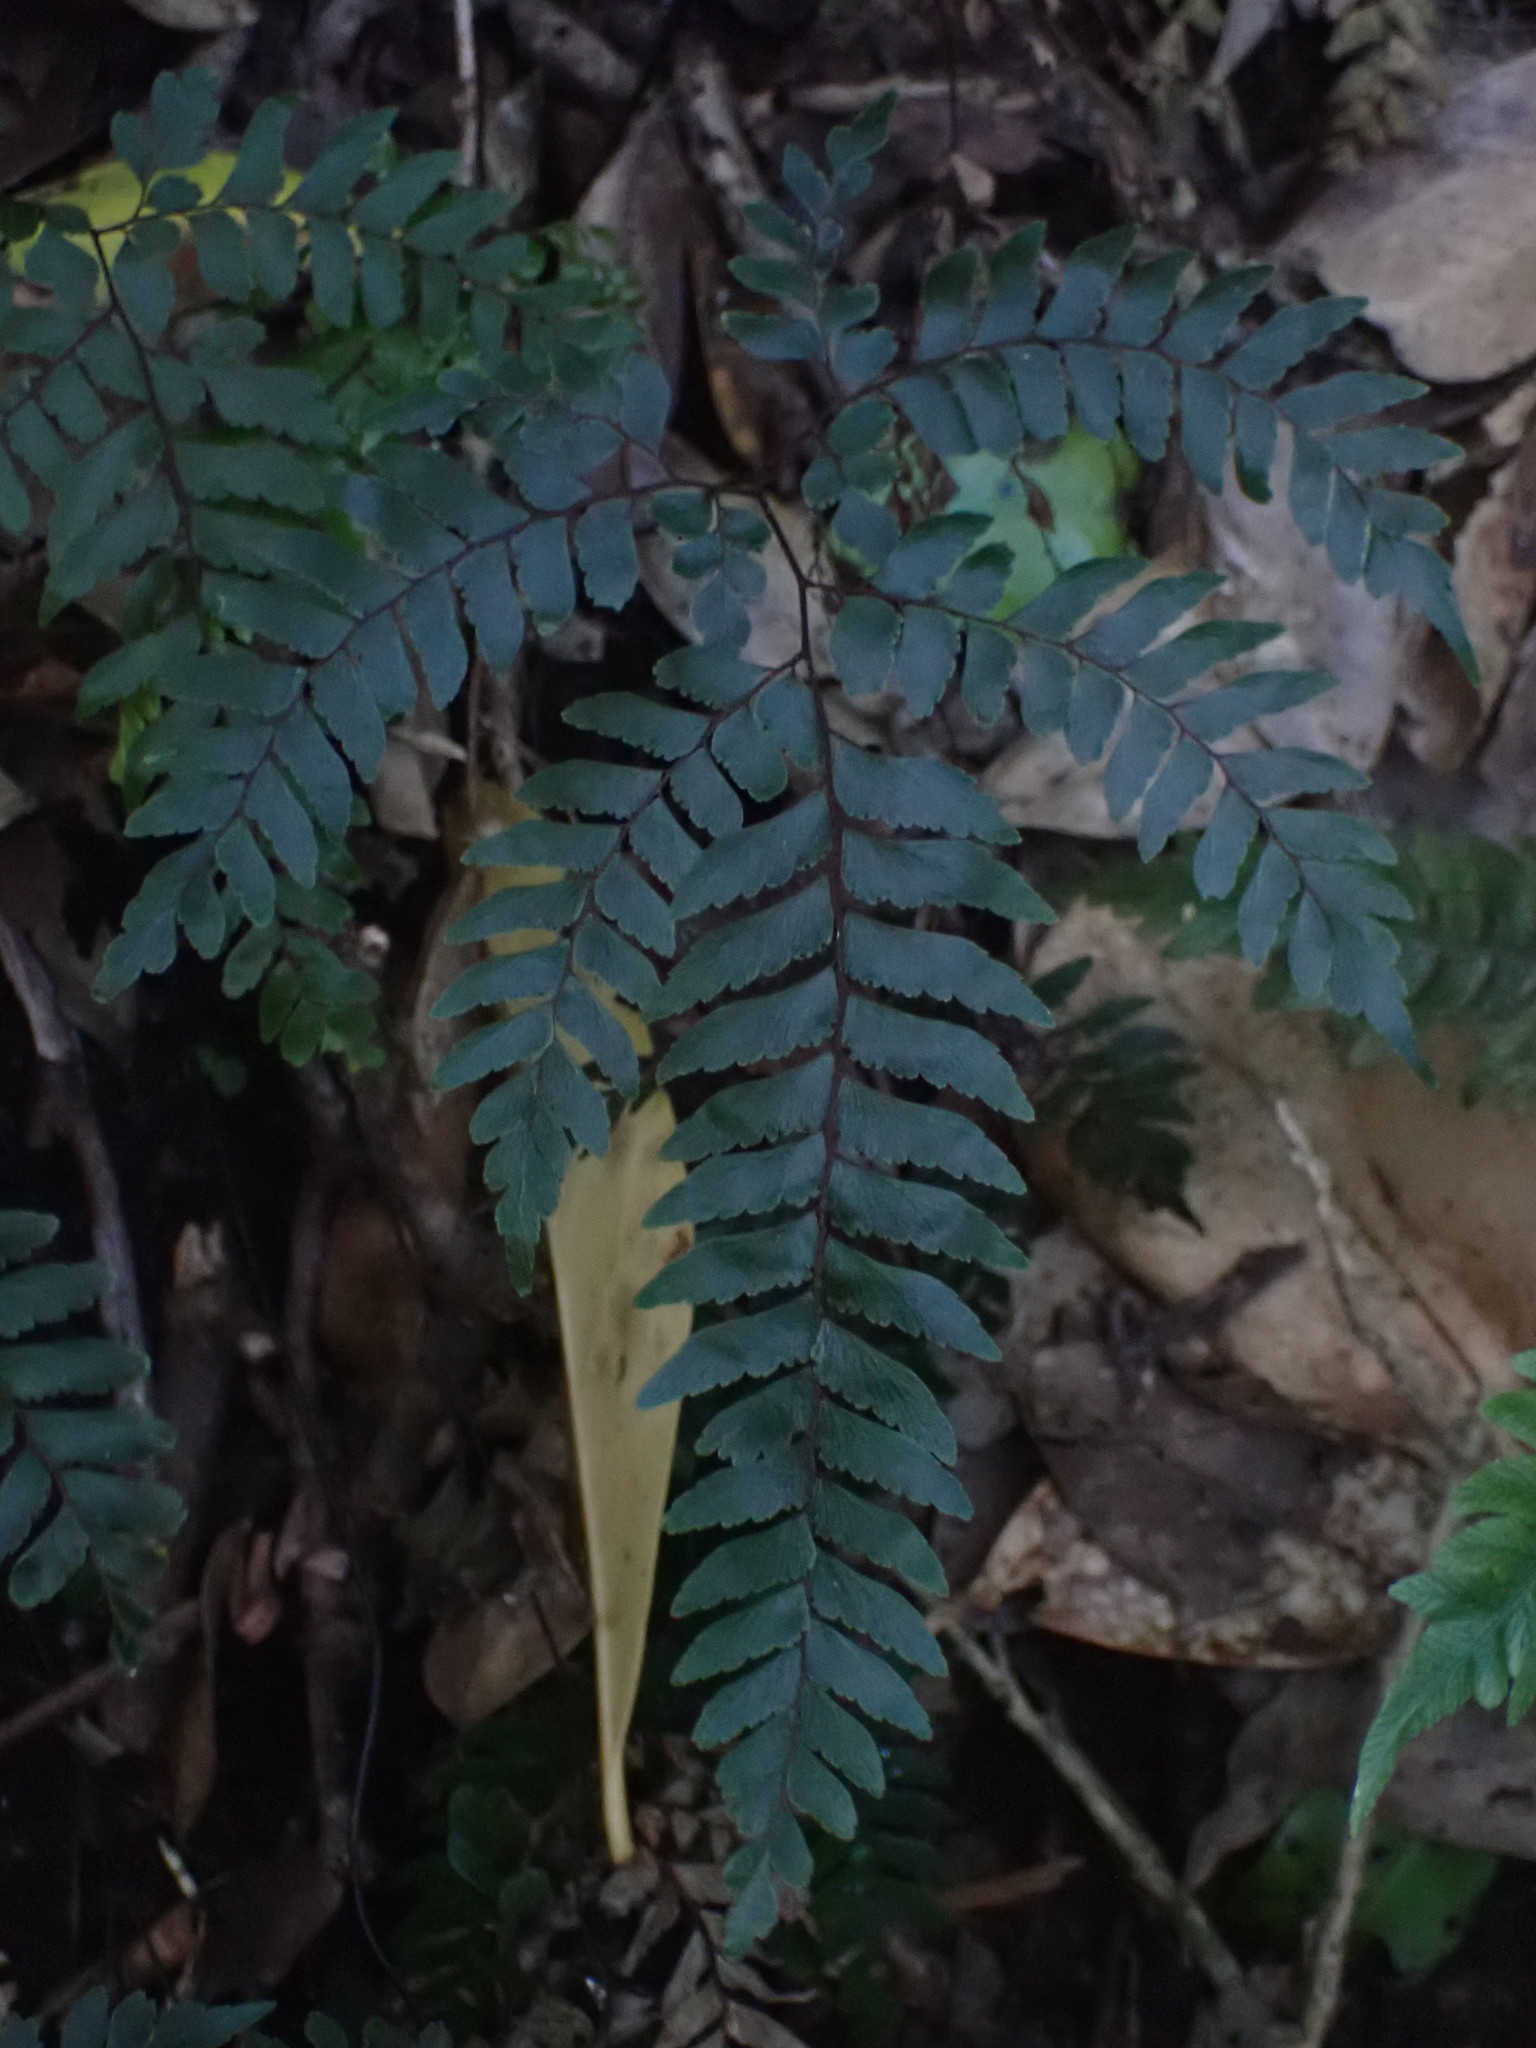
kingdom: Plantae
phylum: Tracheophyta
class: Polypodiopsida
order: Polypodiales
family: Pteridaceae
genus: Adiantum
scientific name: Adiantum fulvum
